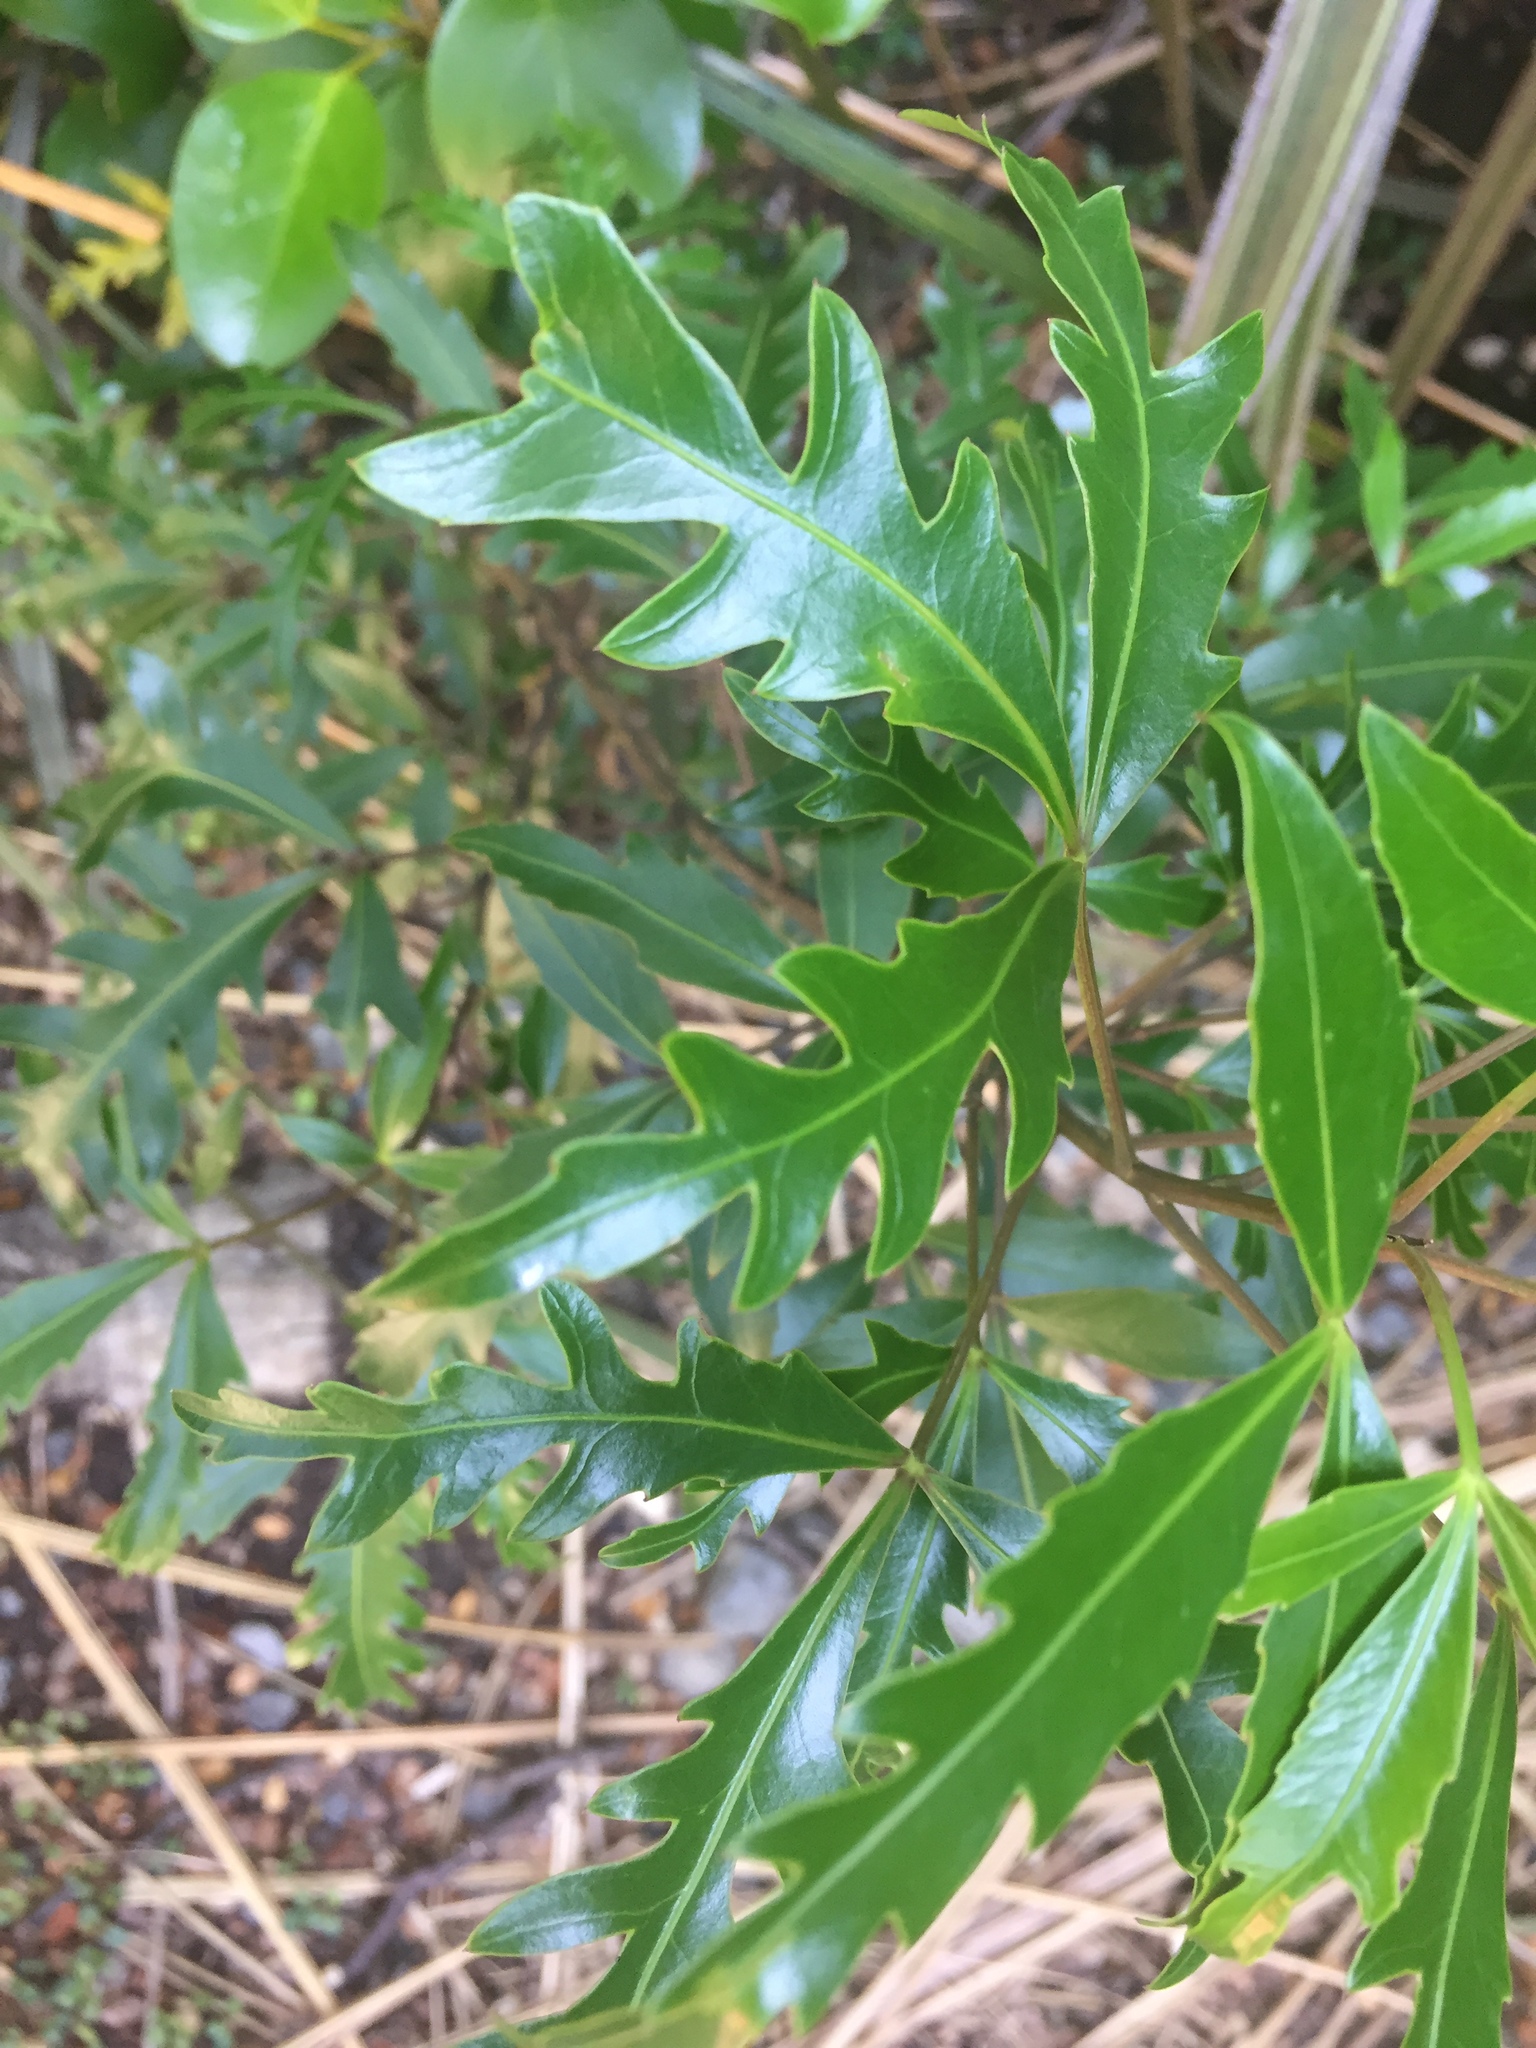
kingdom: Plantae
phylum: Tracheophyta
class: Magnoliopsida
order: Apiales
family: Araliaceae
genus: Raukaua
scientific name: Raukaua simplex
